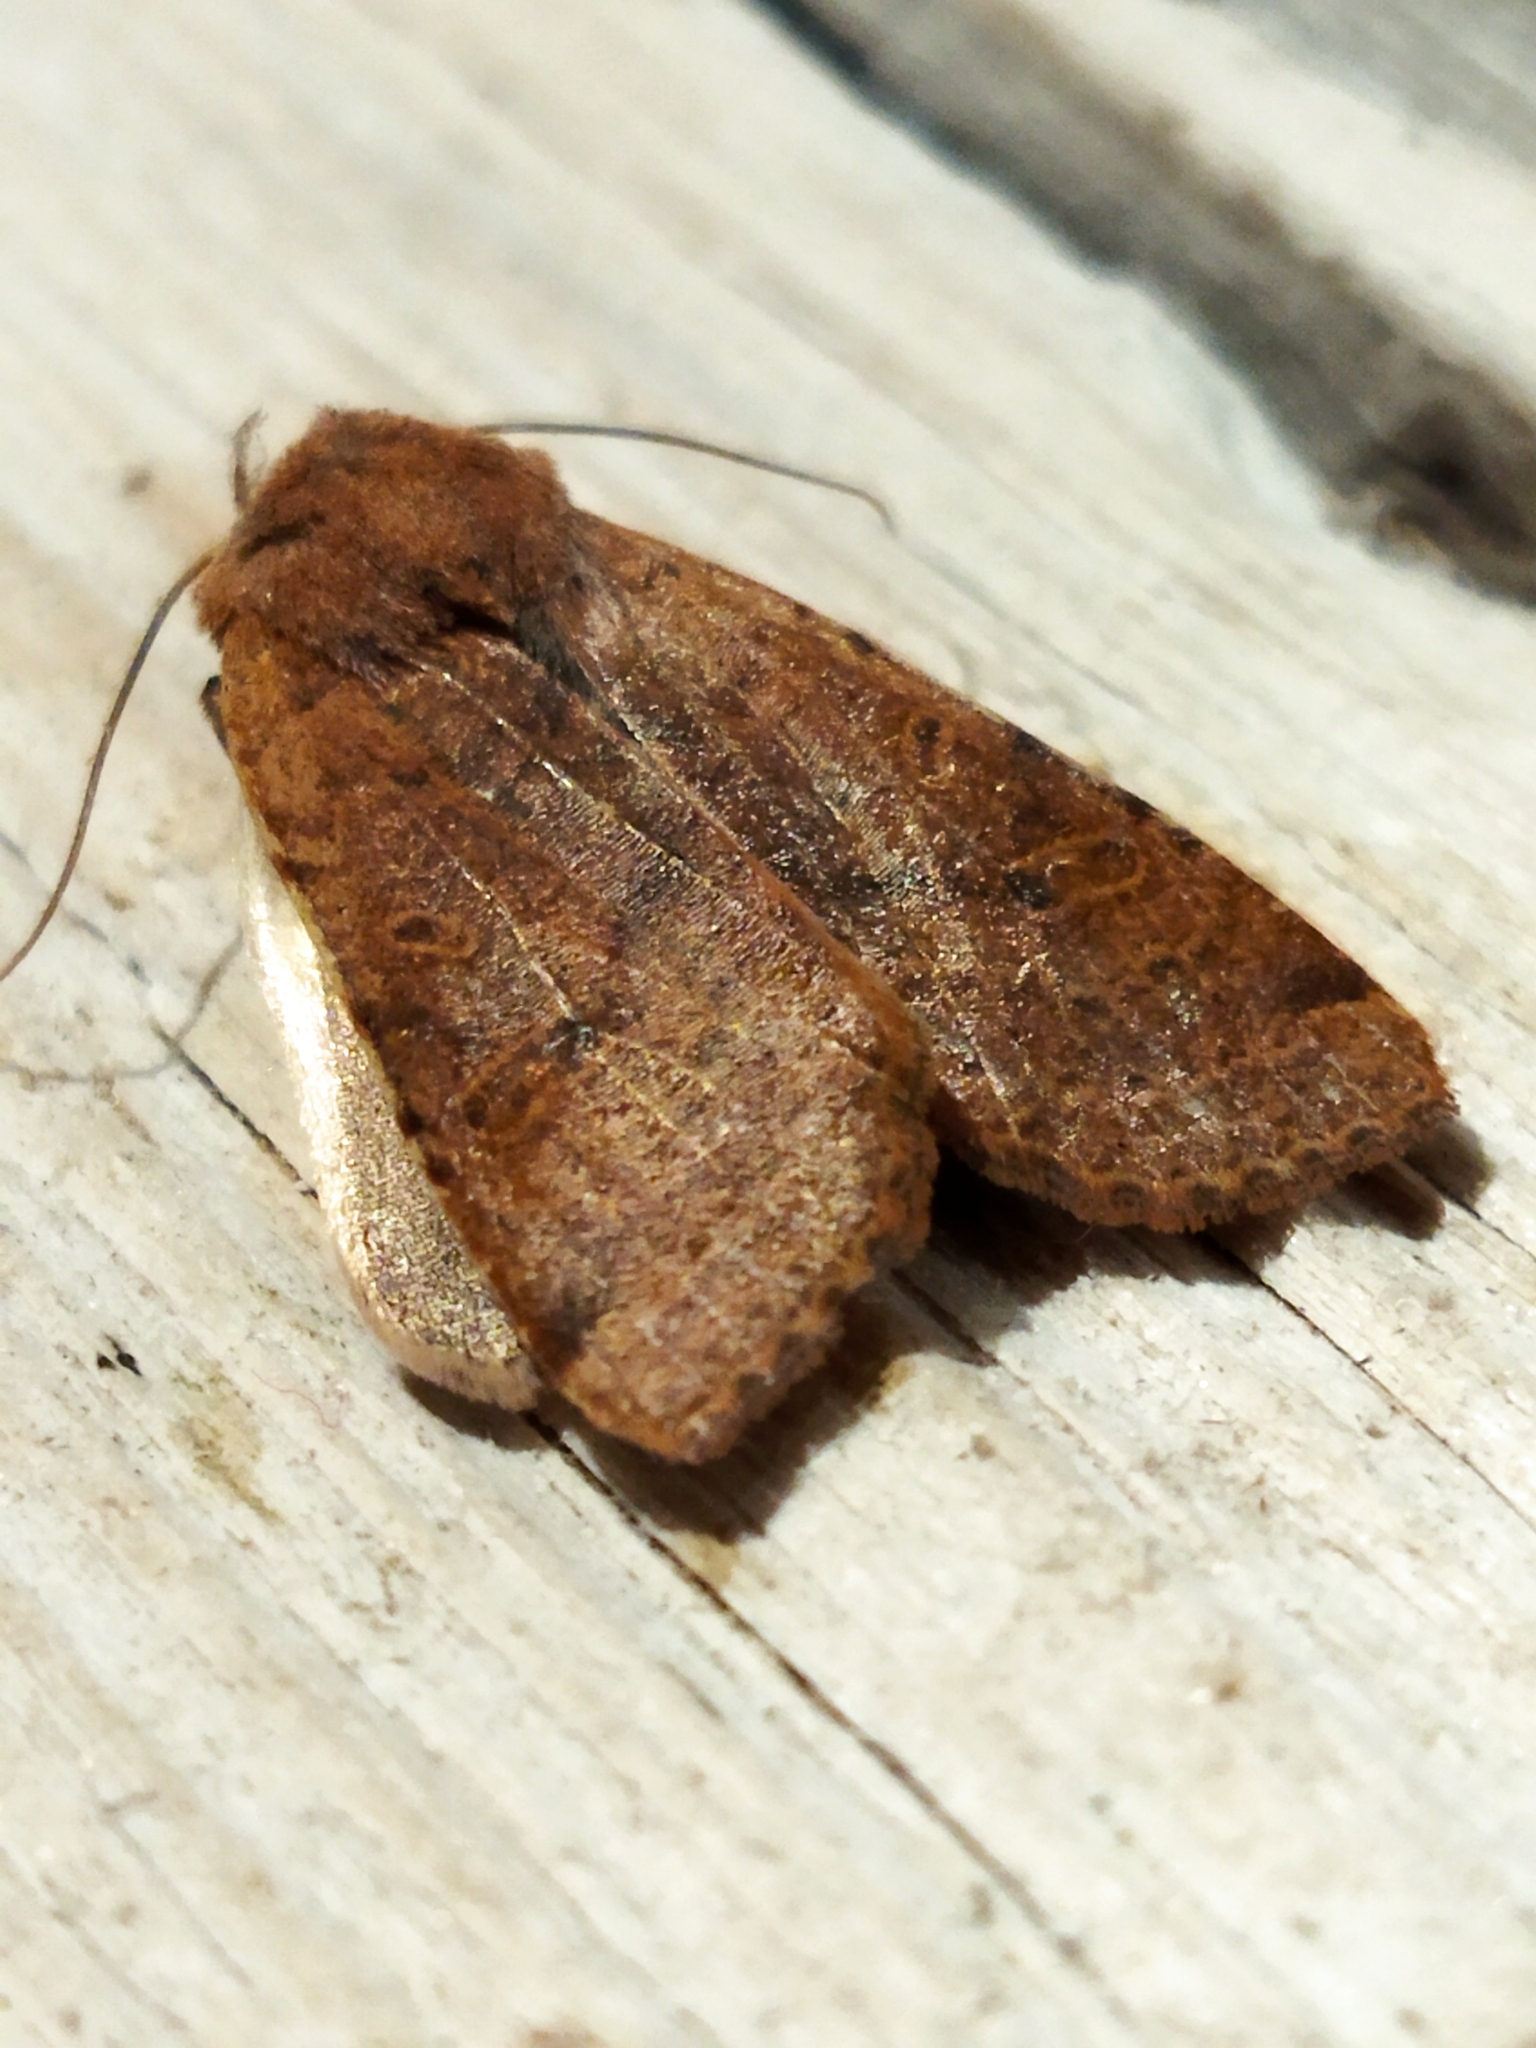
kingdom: Animalia
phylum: Arthropoda
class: Insecta
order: Lepidoptera
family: Noctuidae
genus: Agrochola
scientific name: Agrochola lychnidis
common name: Beaded chestnut
